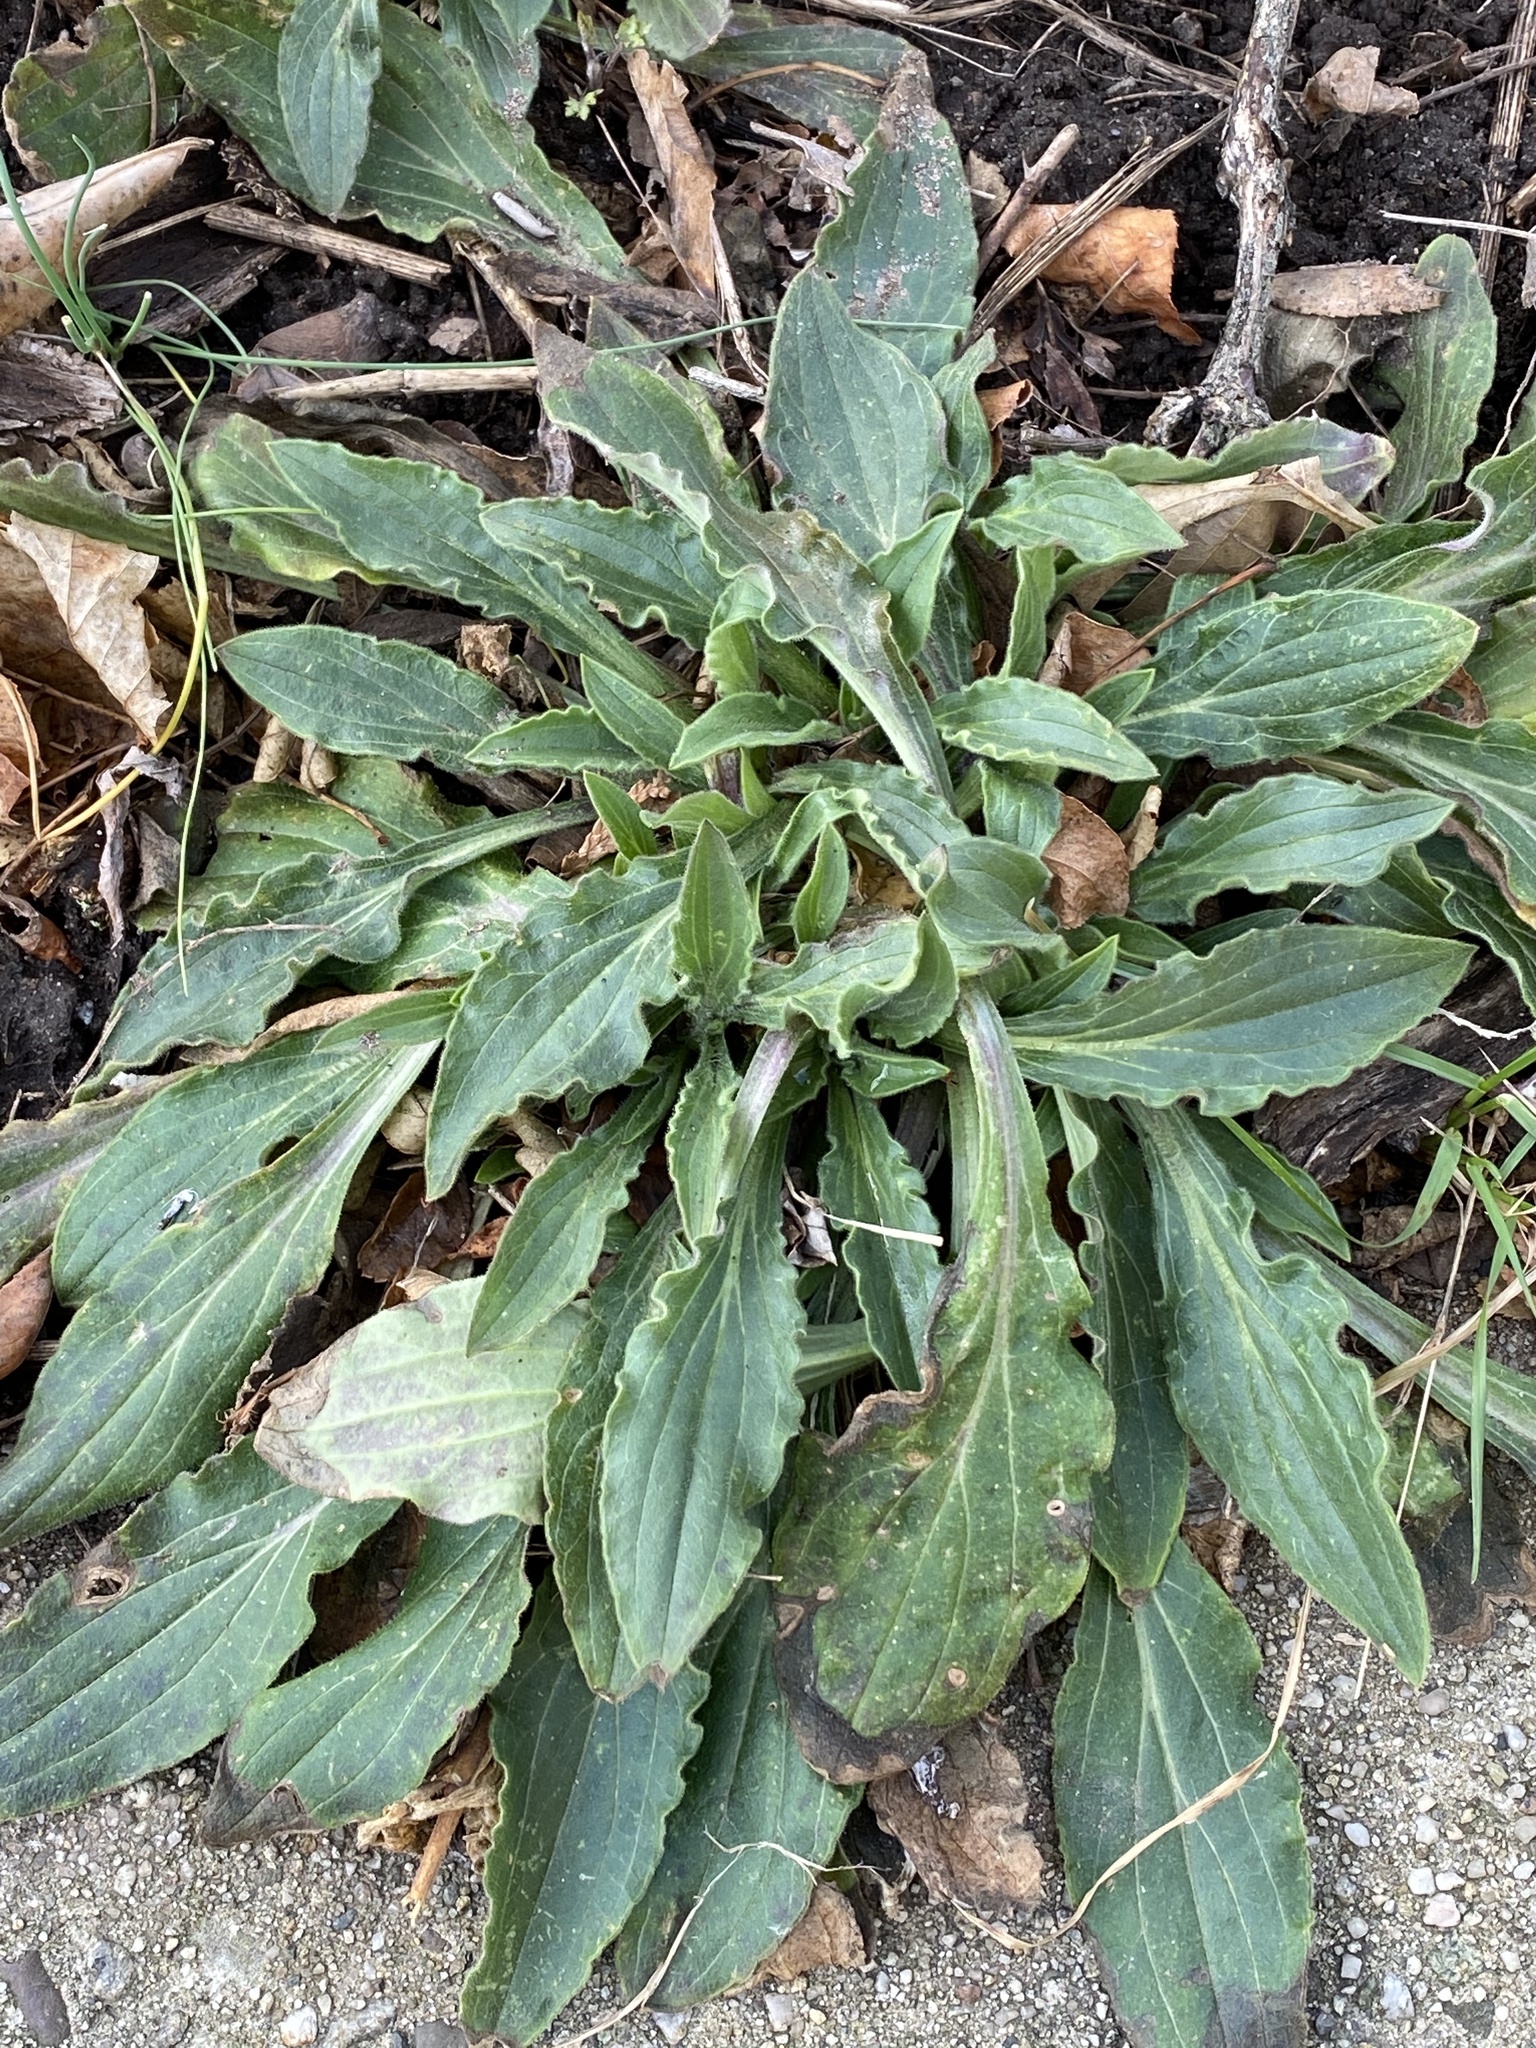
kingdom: Plantae
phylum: Tracheophyta
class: Magnoliopsida
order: Caryophyllales
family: Caryophyllaceae
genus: Silene
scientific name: Silene latifolia
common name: White campion
